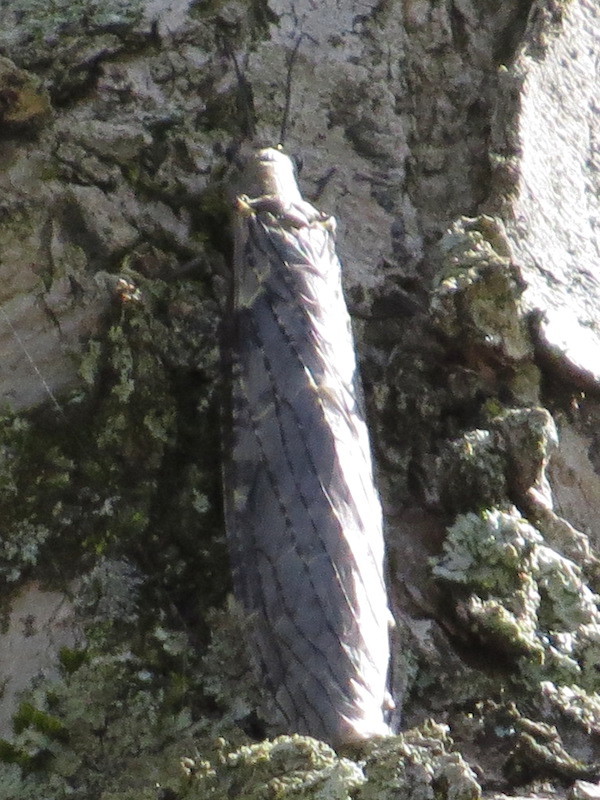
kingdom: Animalia
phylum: Arthropoda
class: Insecta
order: Megaloptera
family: Corydalidae
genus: Chauliodes
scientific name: Chauliodes rastricornis
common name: Spring fishfly
